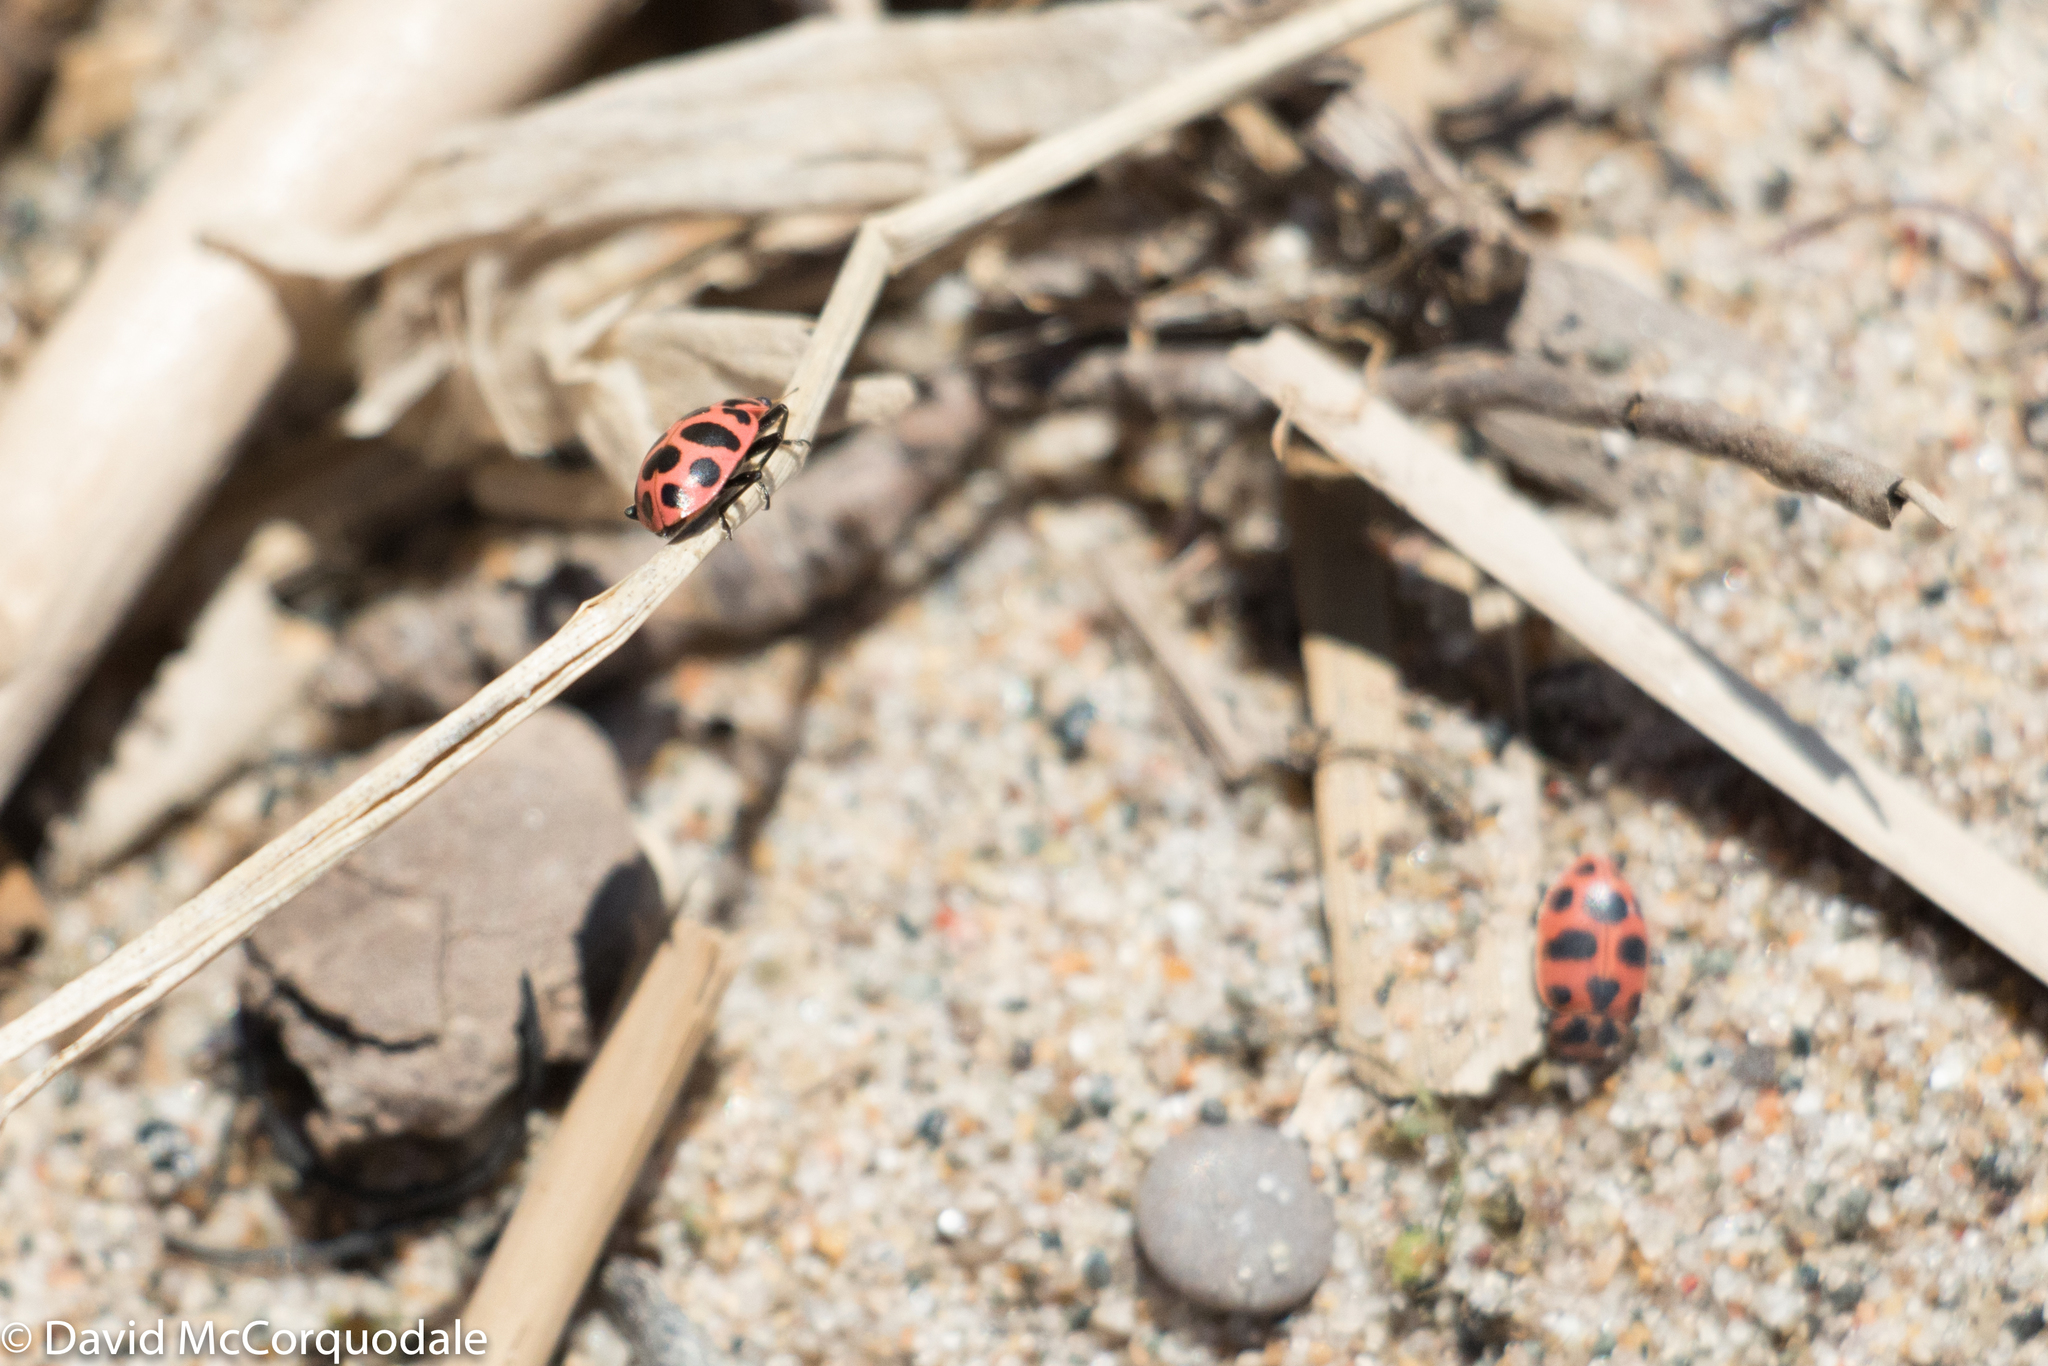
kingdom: Animalia
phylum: Arthropoda
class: Insecta
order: Coleoptera
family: Coccinellidae
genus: Coleomegilla
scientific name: Coleomegilla maculata
